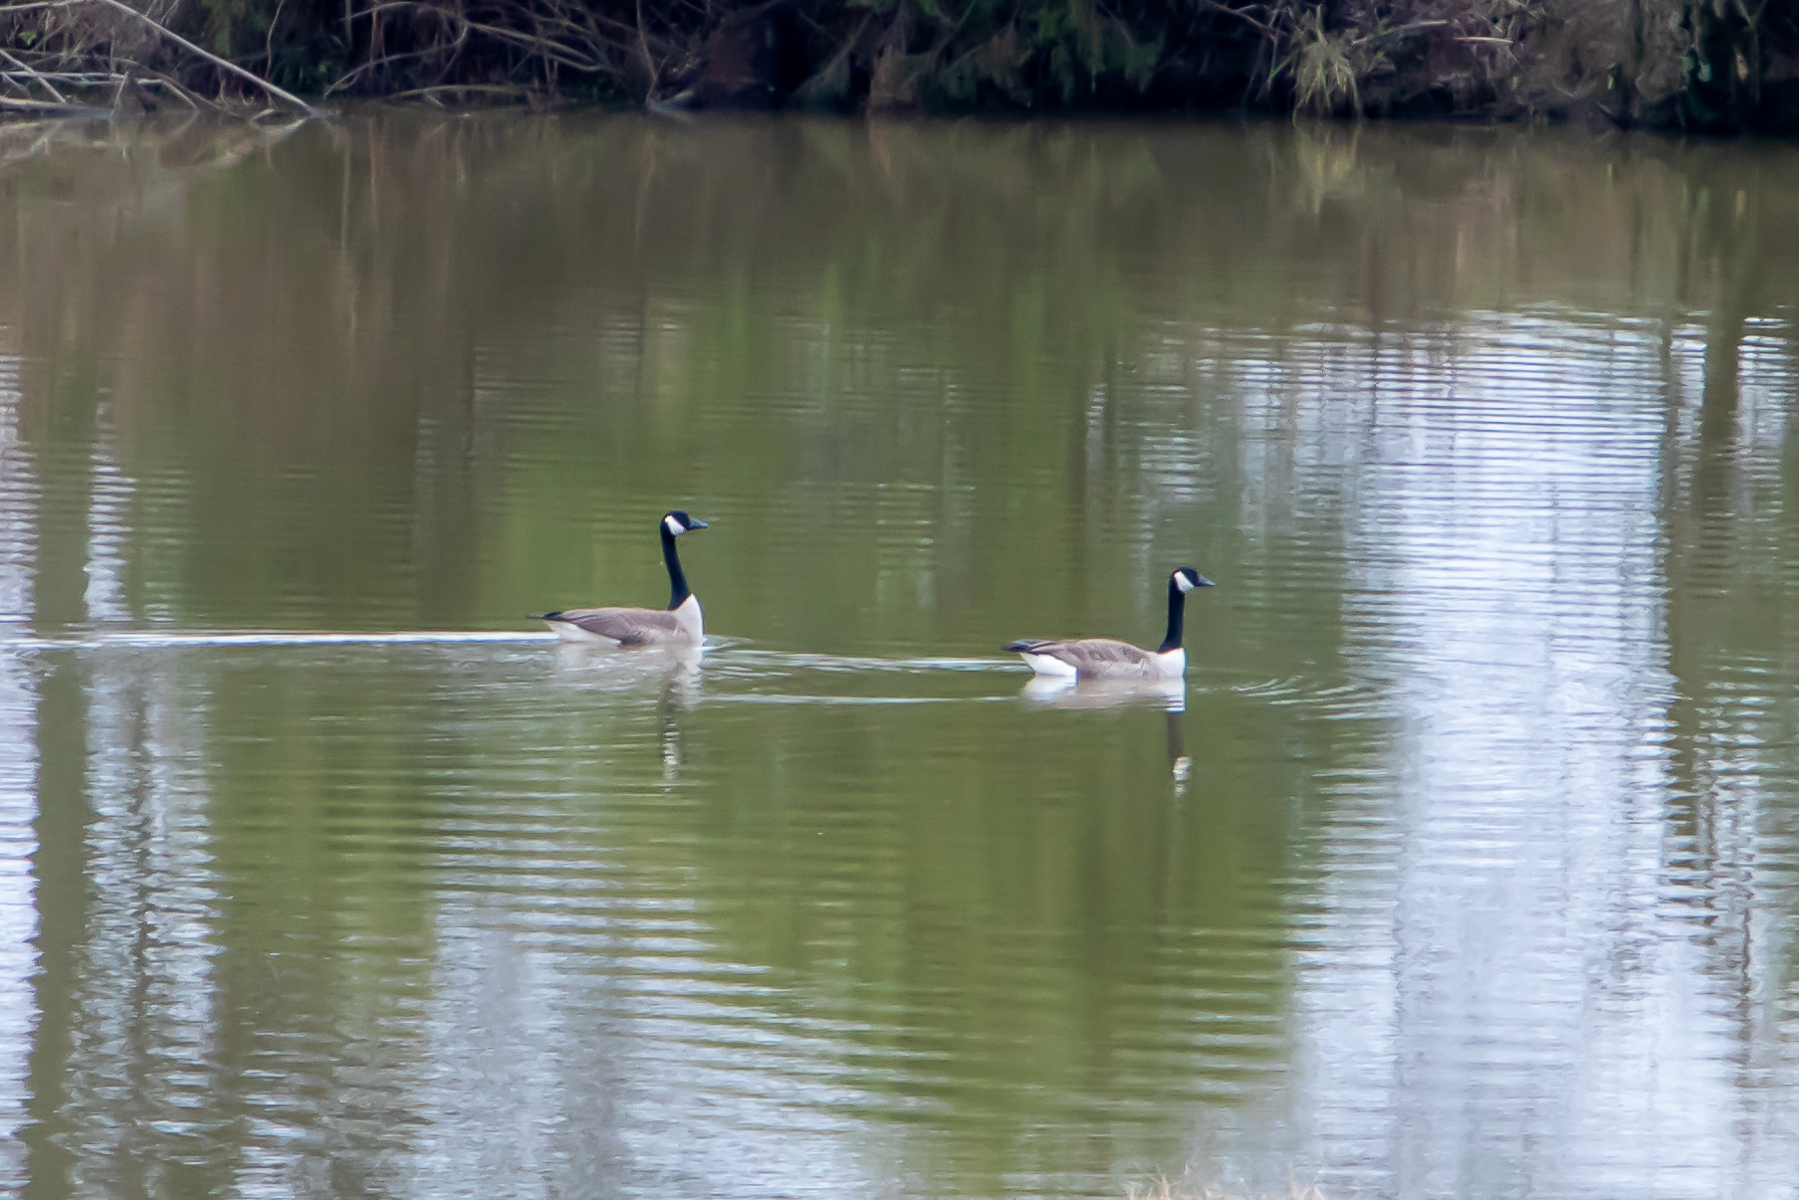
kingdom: Animalia
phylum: Chordata
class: Aves
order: Anseriformes
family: Anatidae
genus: Branta
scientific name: Branta canadensis
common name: Canada goose
